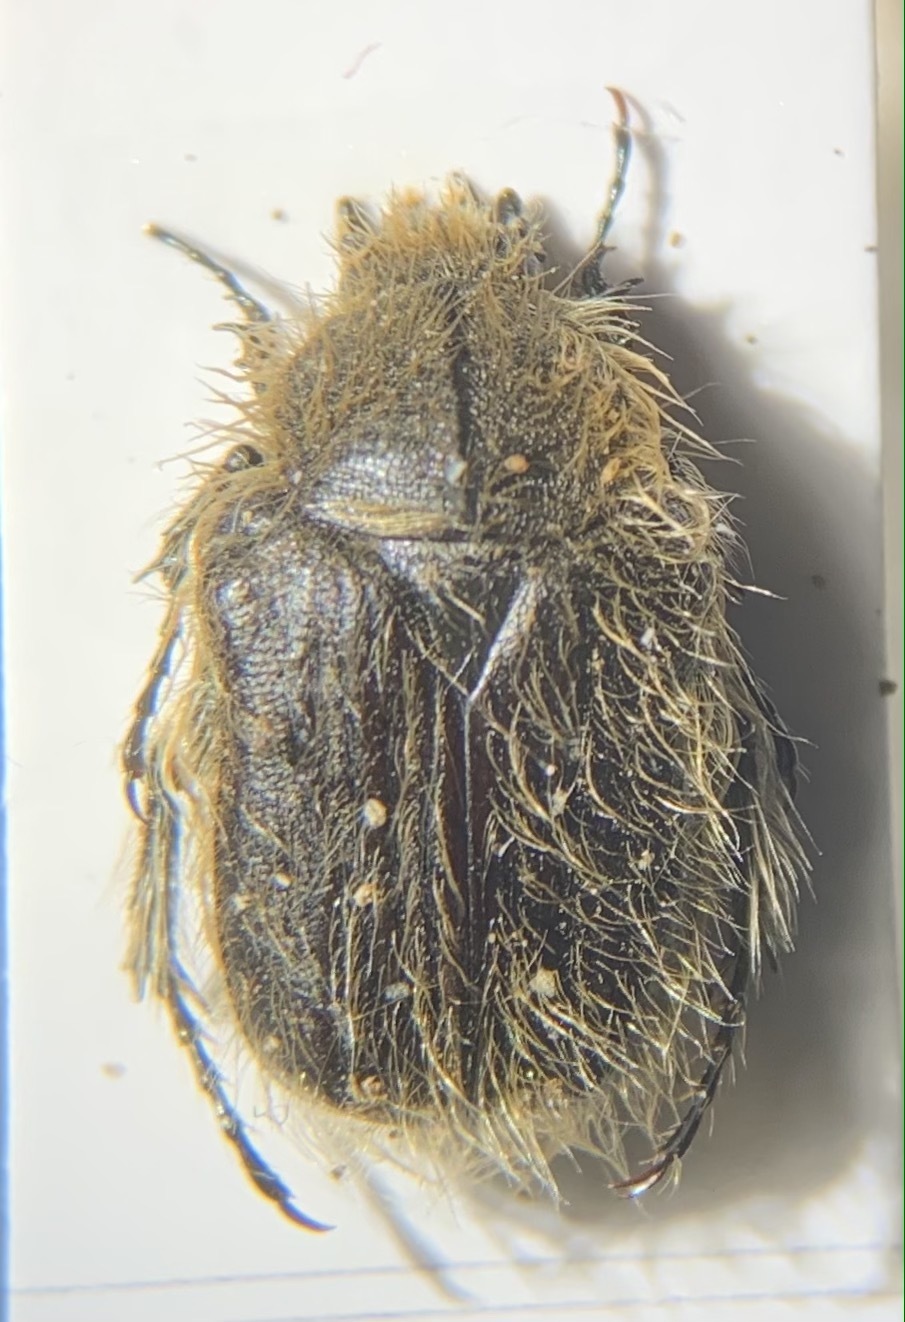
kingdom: Animalia
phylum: Arthropoda
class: Insecta
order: Coleoptera
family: Scarabaeidae
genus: Tropinota
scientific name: Tropinota hirta
